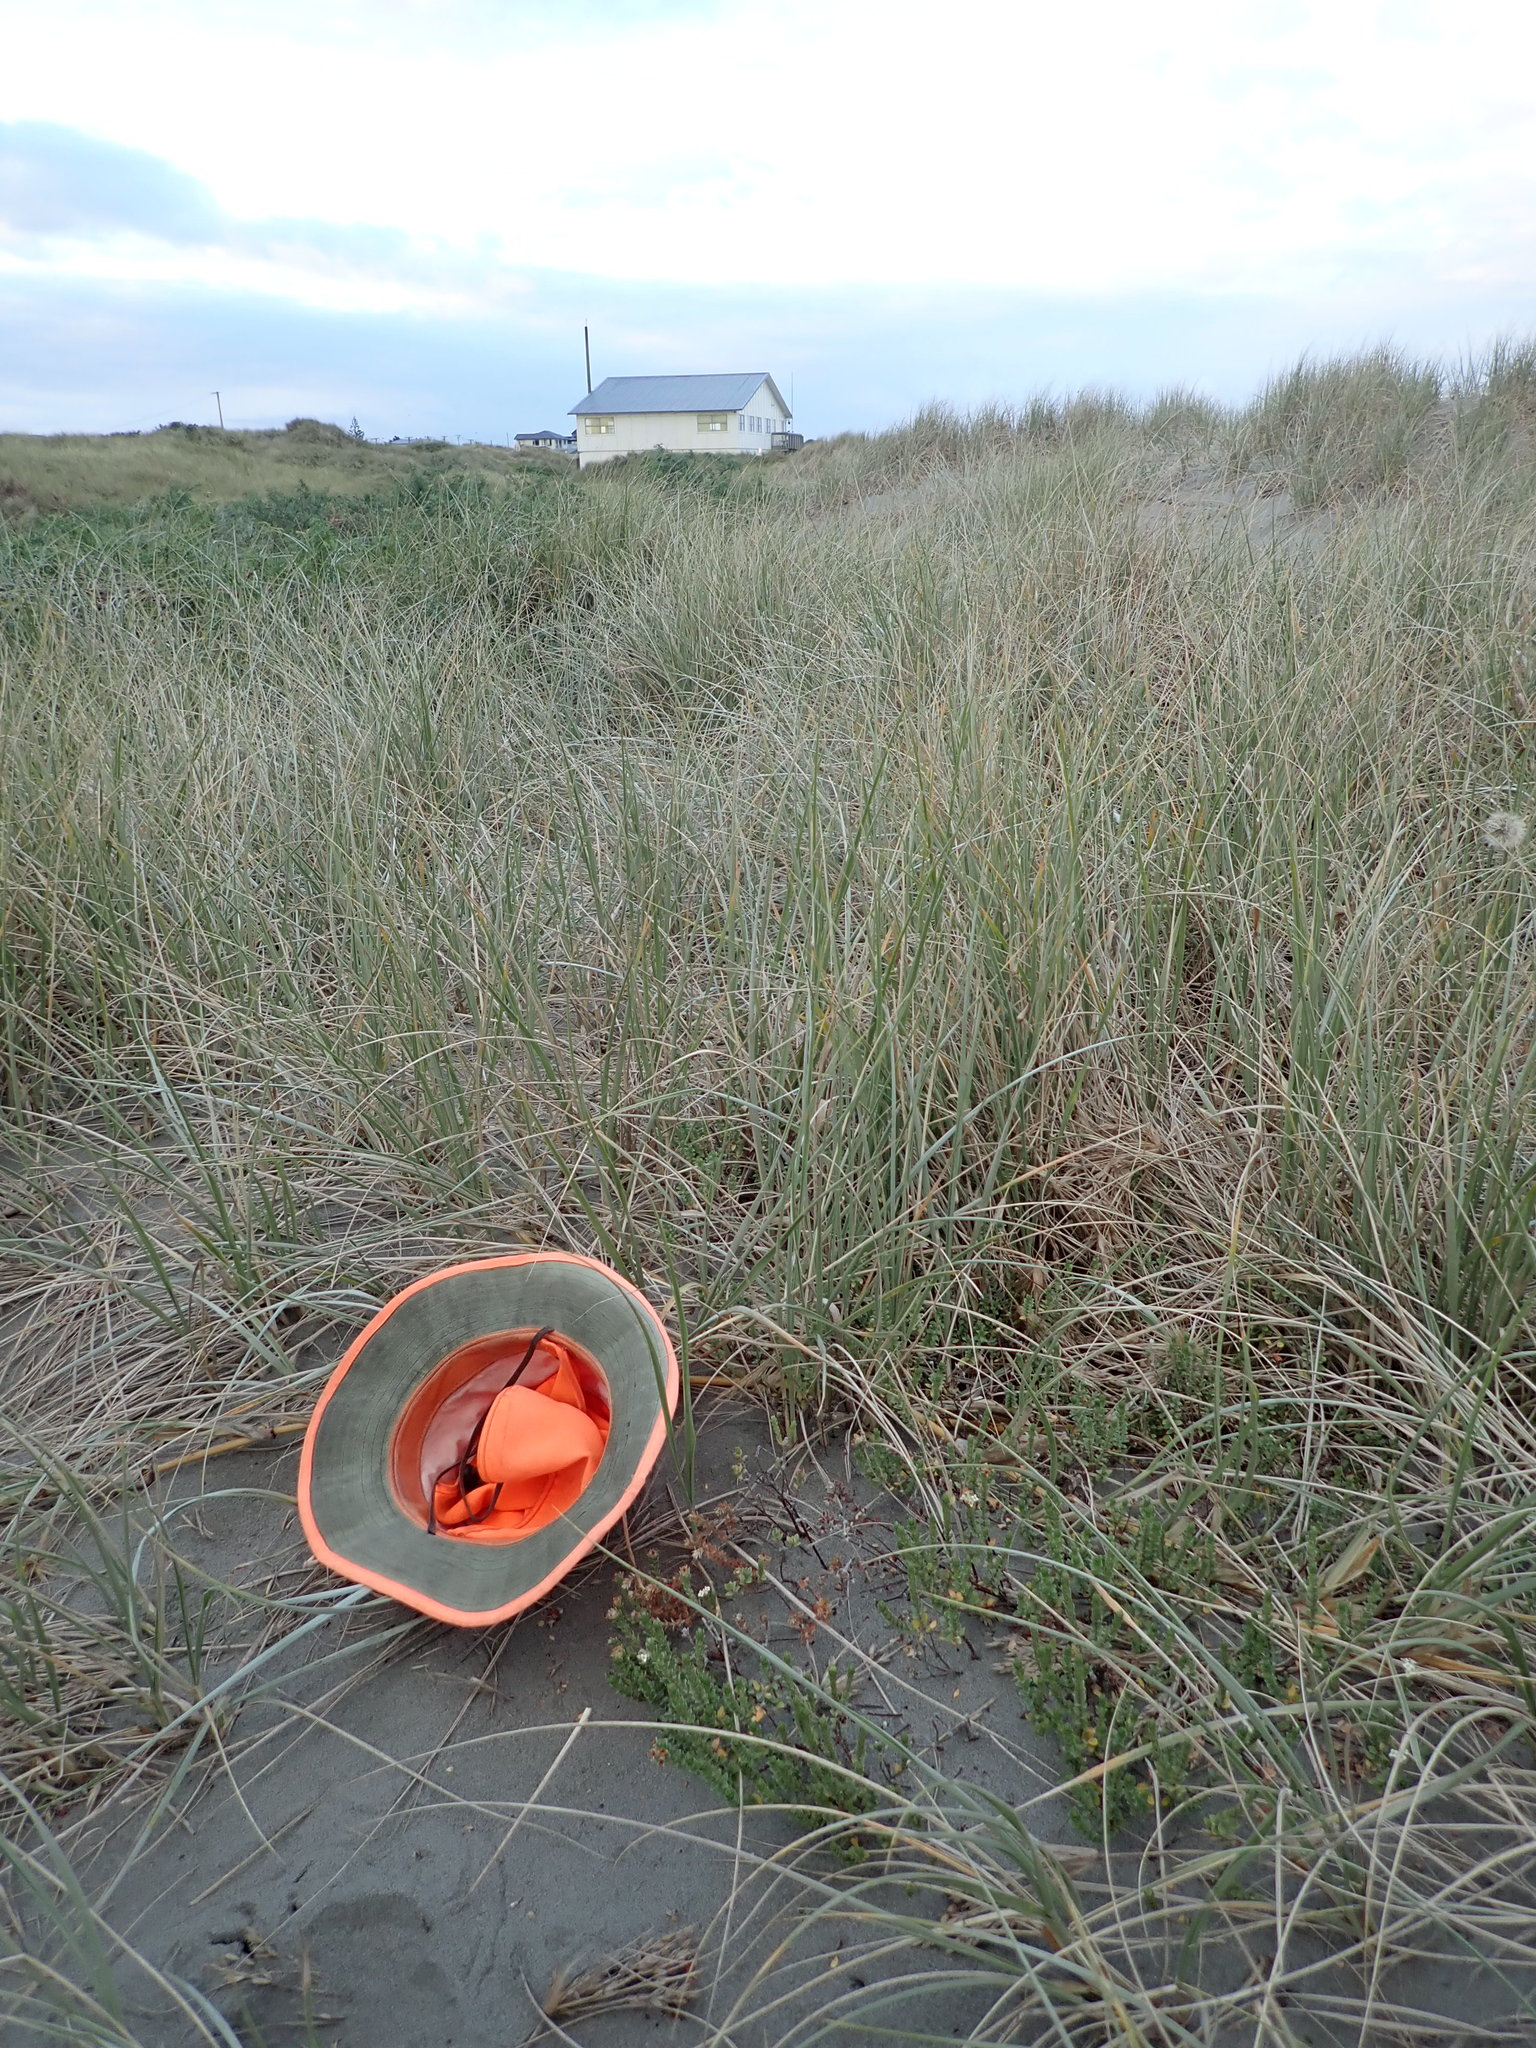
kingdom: Plantae
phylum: Tracheophyta
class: Magnoliopsida
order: Malvales
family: Thymelaeaceae
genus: Pimelea
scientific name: Pimelea villosa
